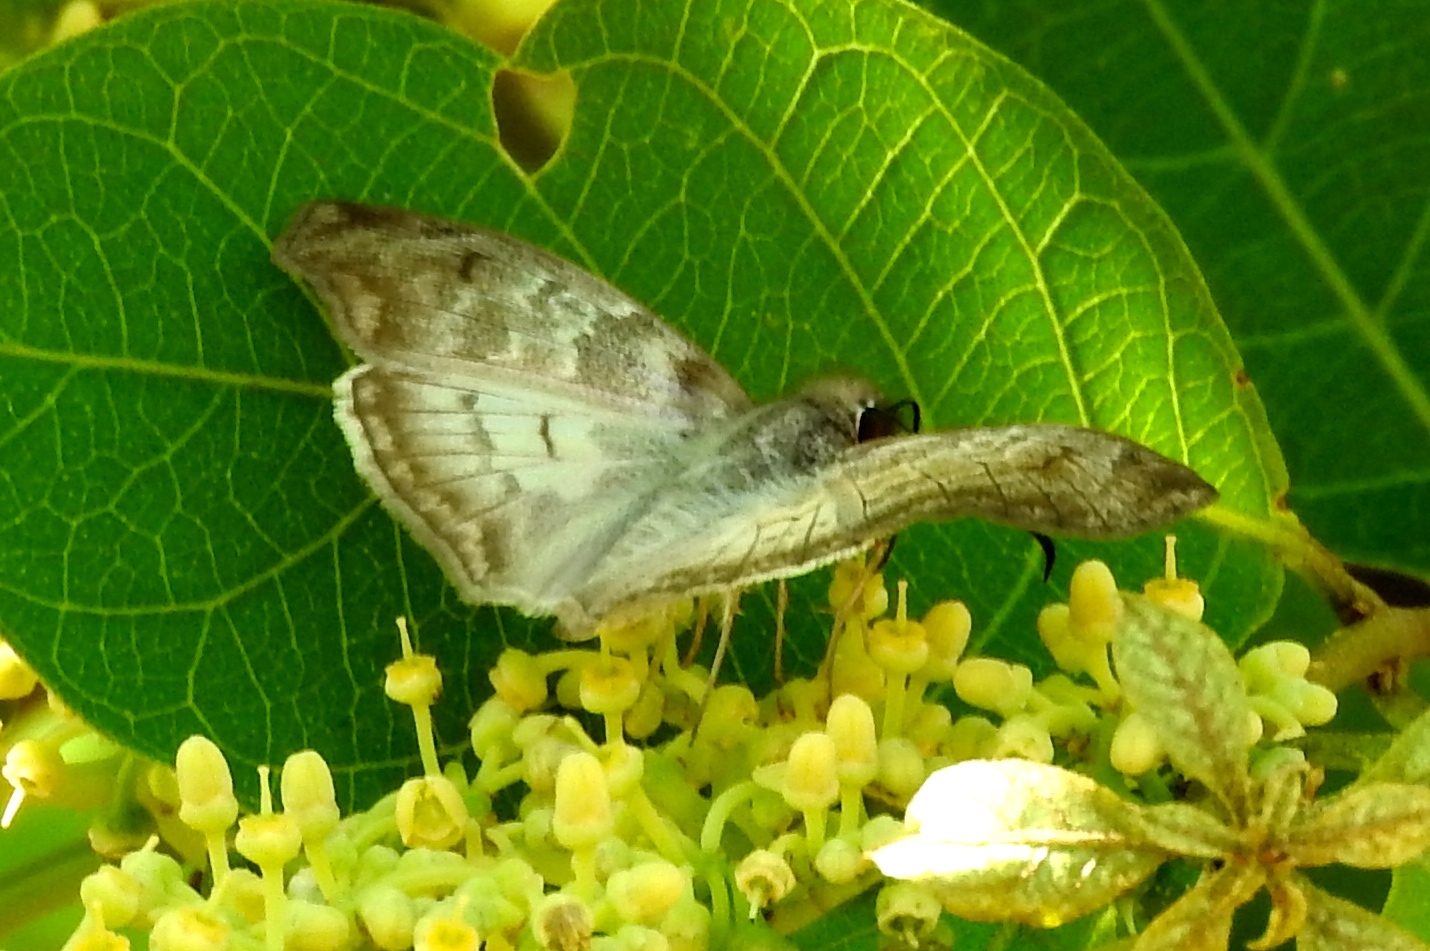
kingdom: Animalia
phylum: Arthropoda
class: Insecta
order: Lepidoptera
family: Hesperiidae
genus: Mylon
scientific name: Mylon pelopidas
